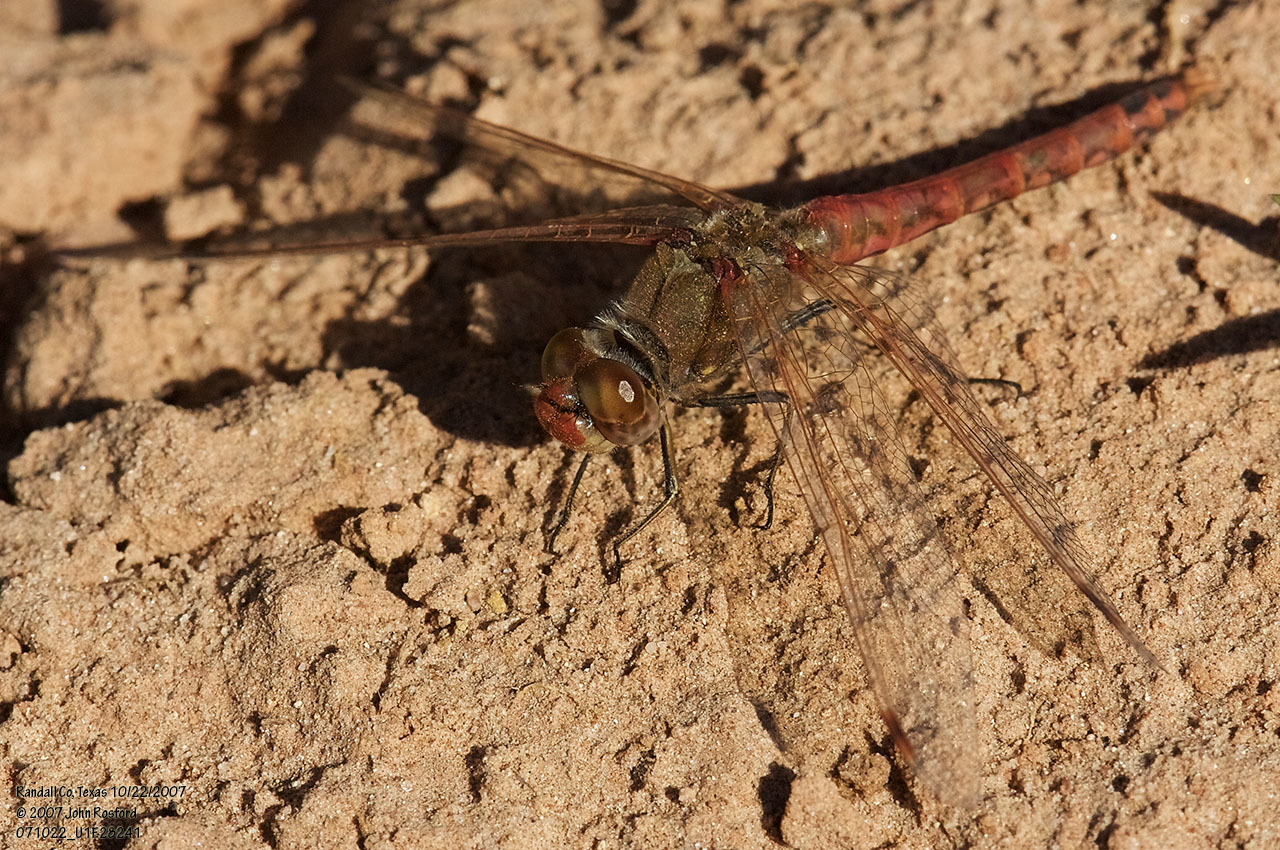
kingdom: Animalia
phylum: Arthropoda
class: Insecta
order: Odonata
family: Libellulidae
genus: Sympetrum
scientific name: Sympetrum corruptum
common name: Variegated meadowhawk
